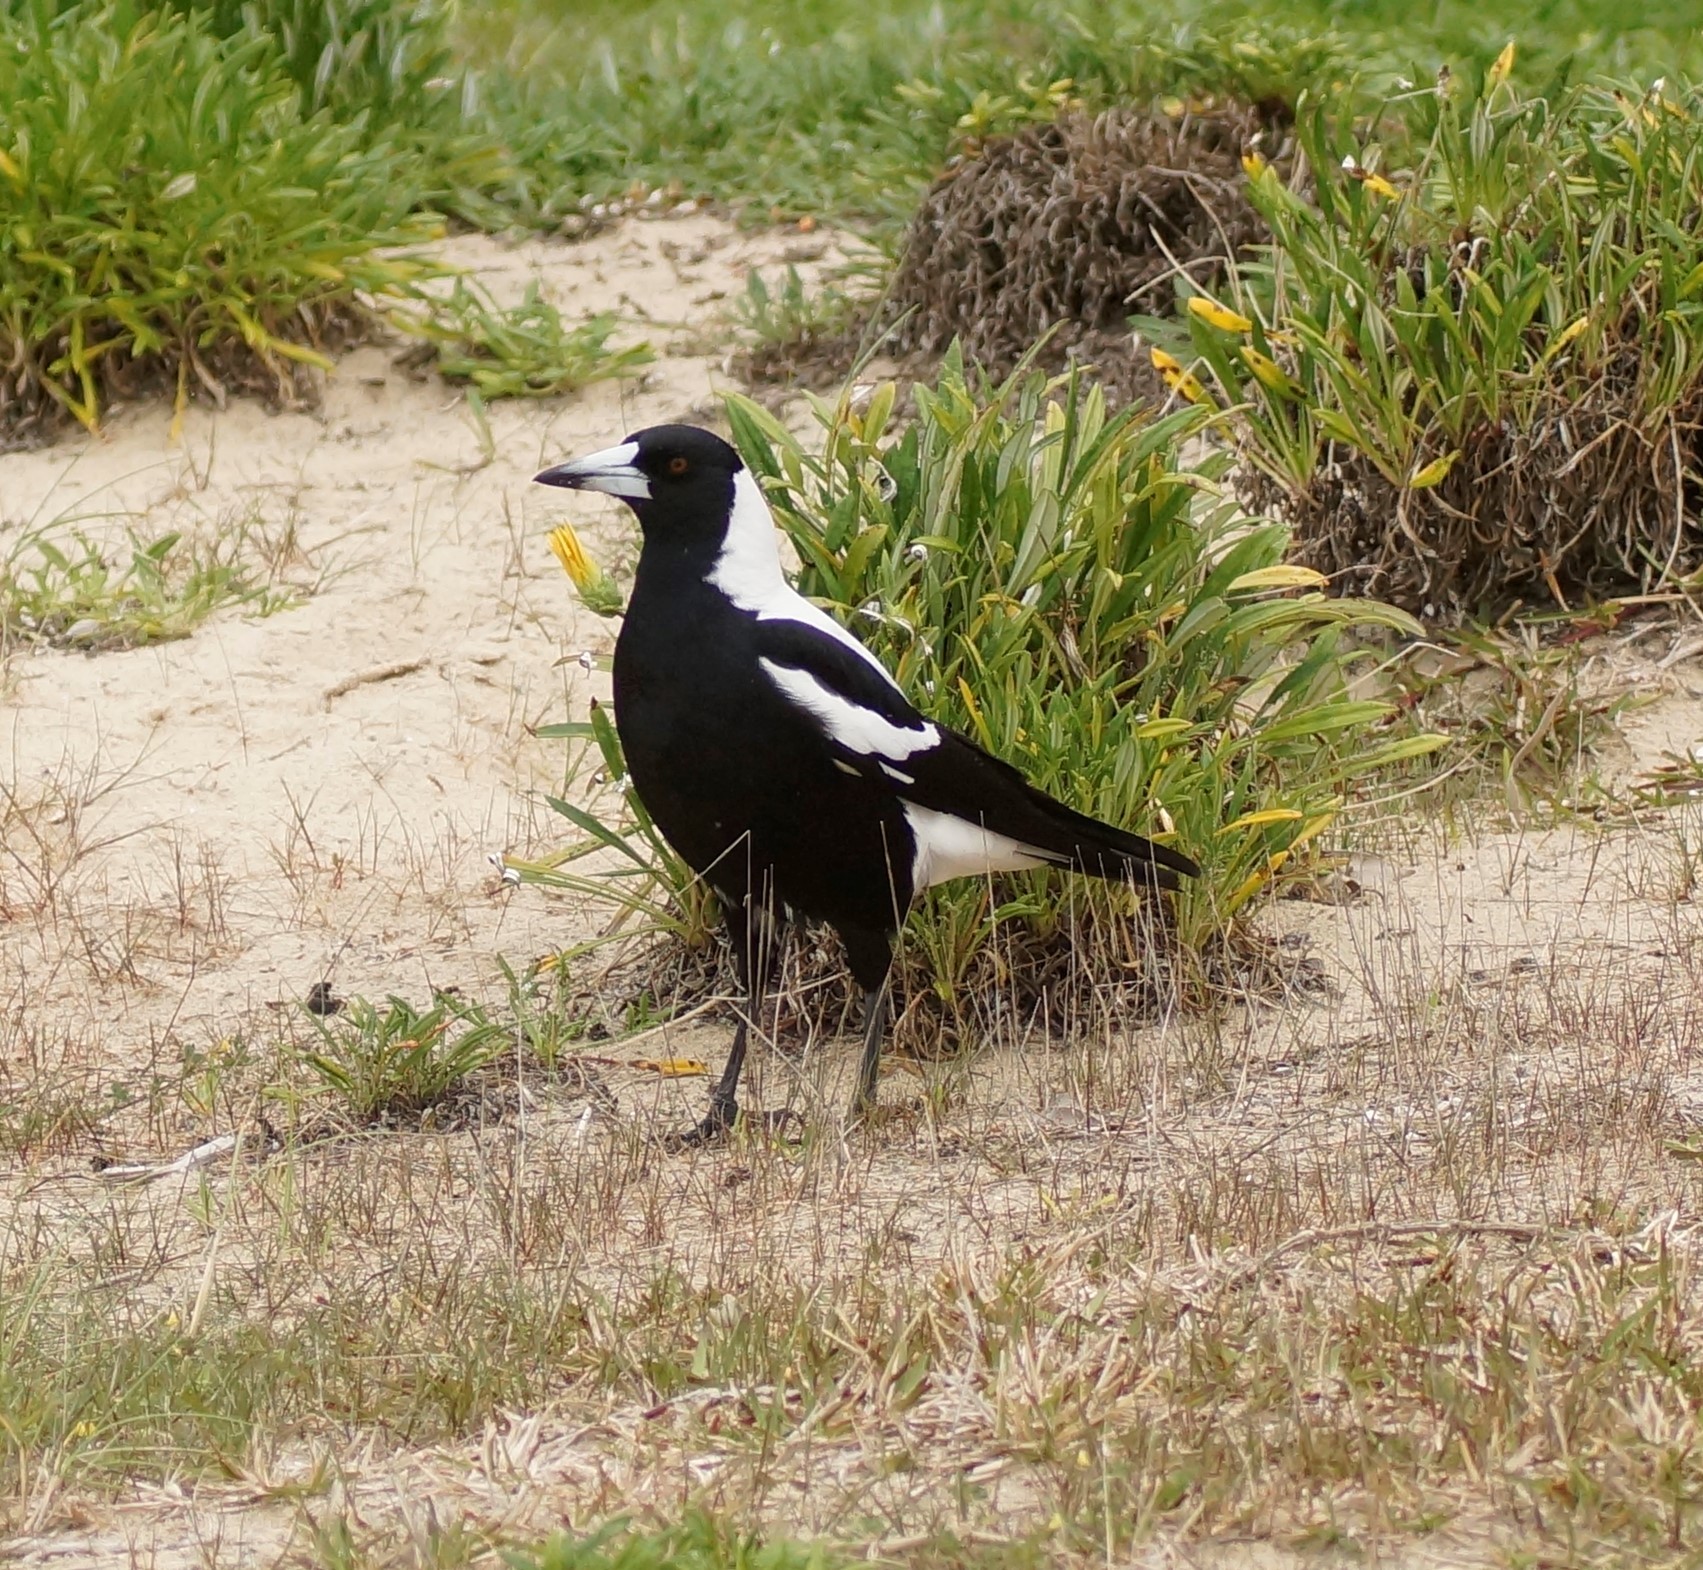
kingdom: Animalia
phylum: Chordata
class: Aves
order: Passeriformes
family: Cracticidae
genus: Gymnorhina
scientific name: Gymnorhina tibicen
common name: Australian magpie
